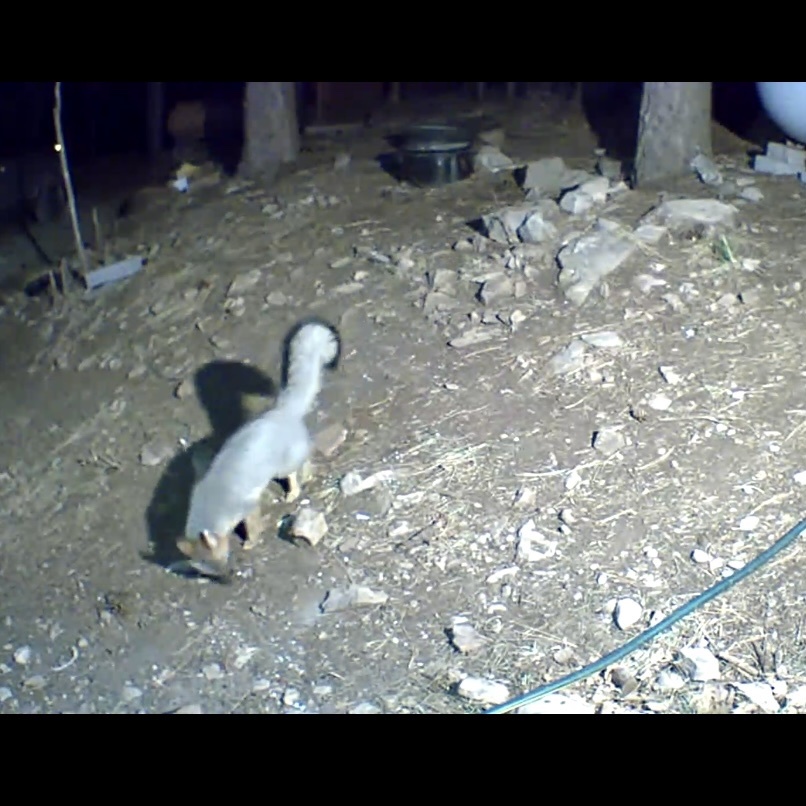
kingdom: Animalia
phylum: Chordata
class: Mammalia
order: Carnivora
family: Canidae
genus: Urocyon
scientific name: Urocyon cinereoargenteus
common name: Gray fox
